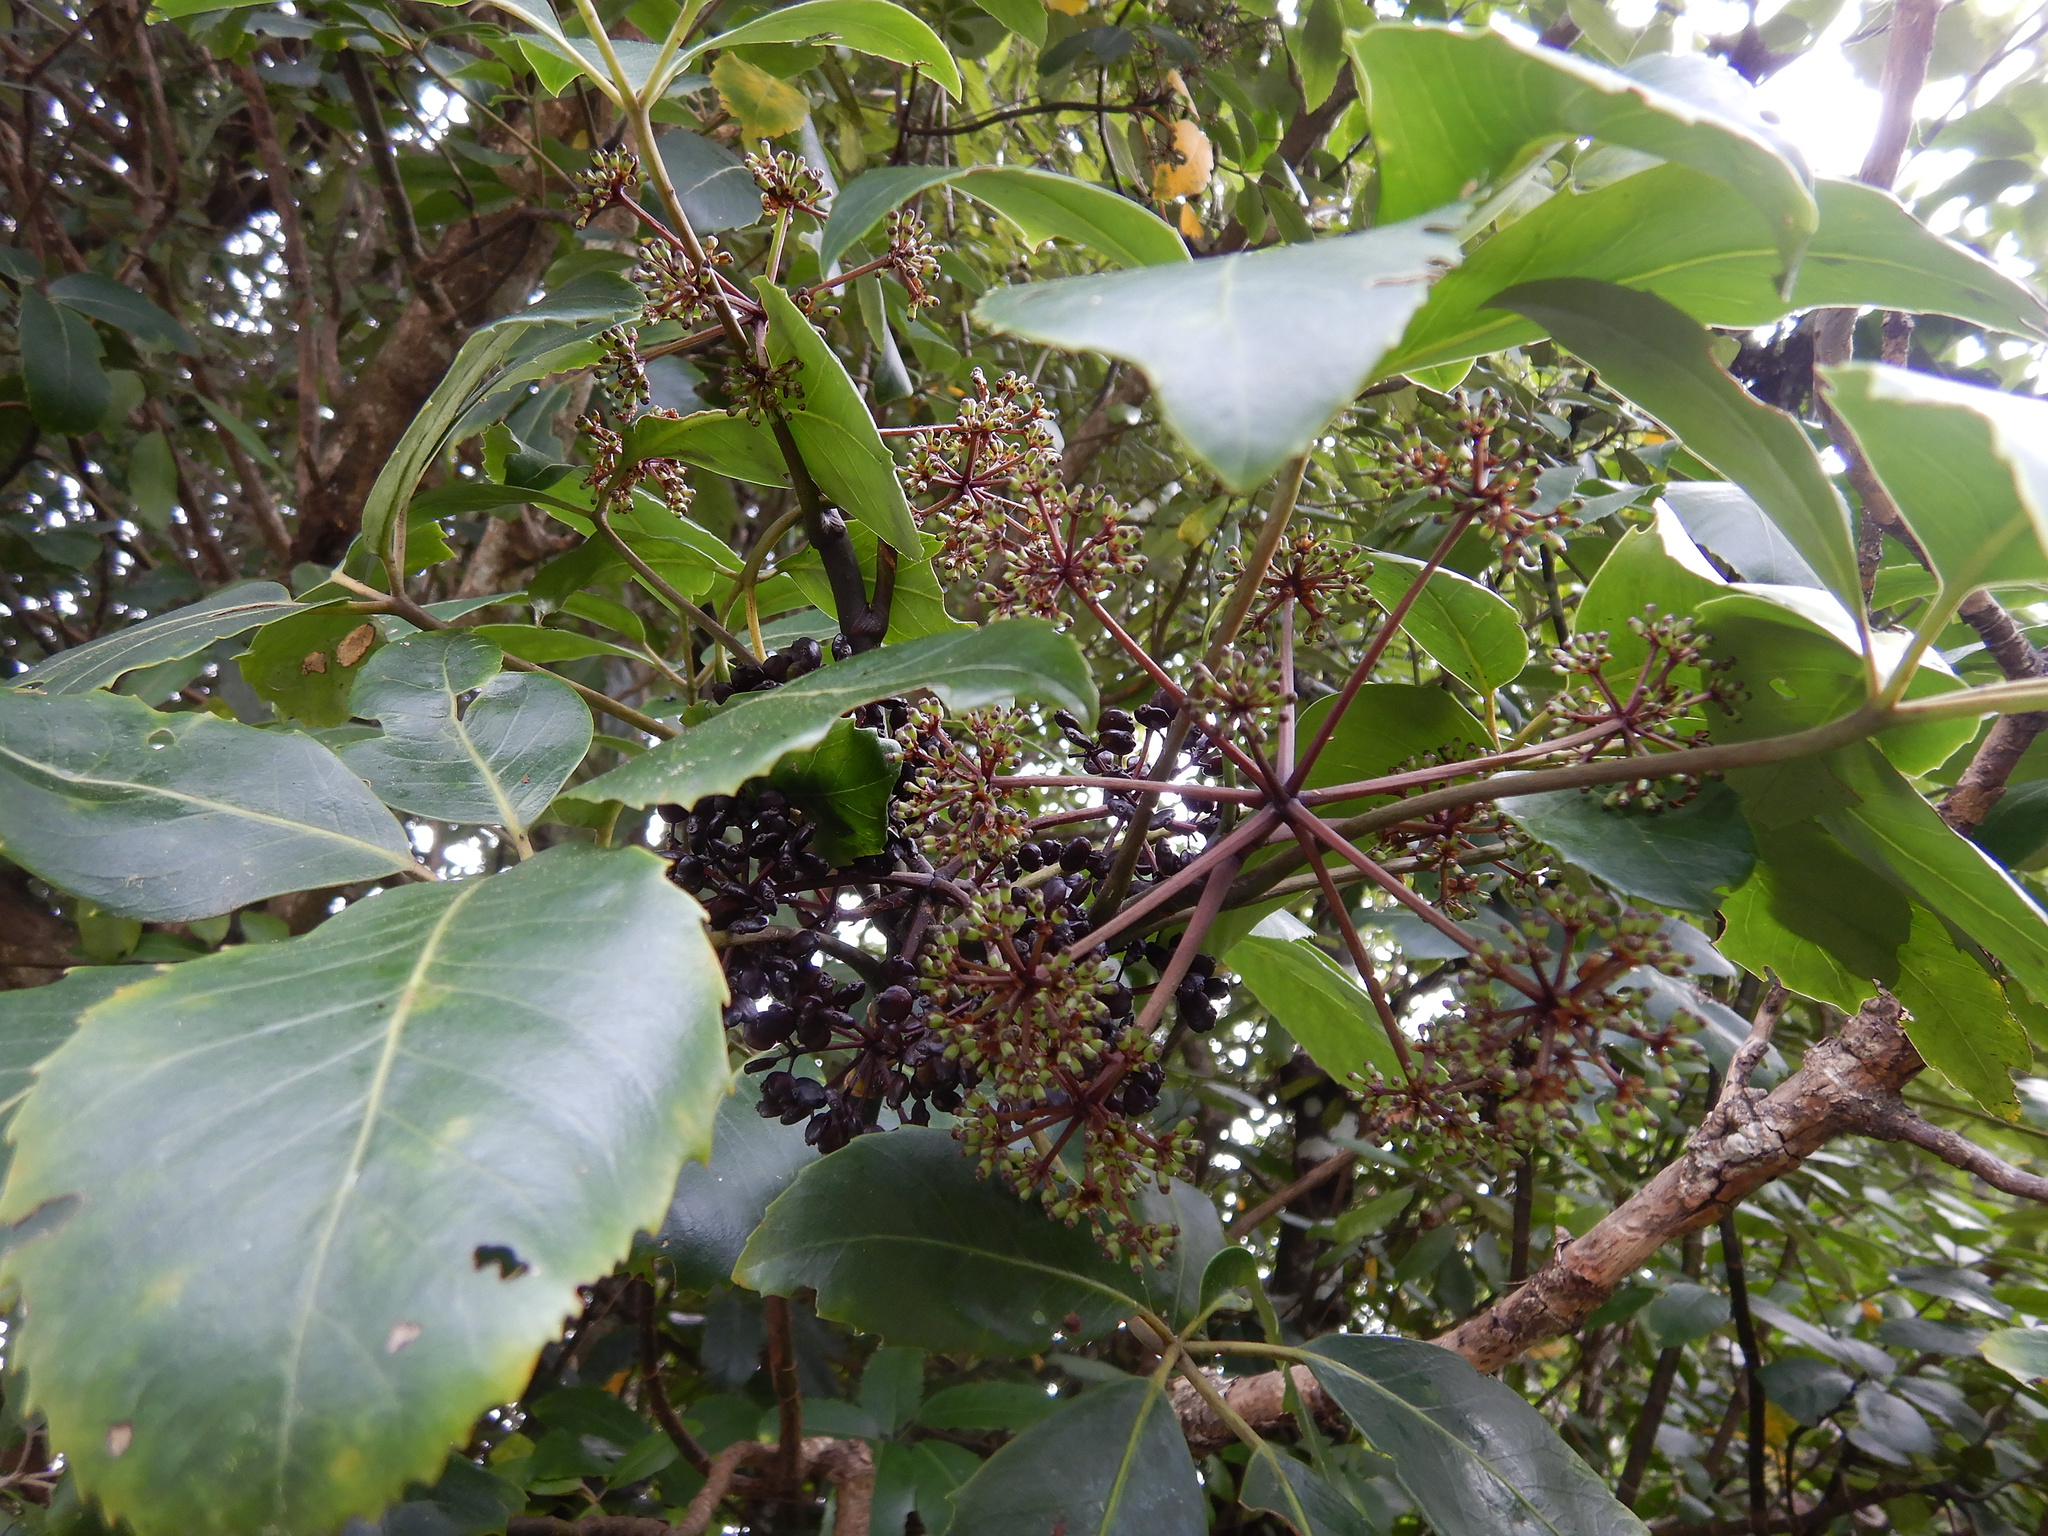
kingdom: Plantae
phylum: Tracheophyta
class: Magnoliopsida
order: Apiales
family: Araliaceae
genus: Neopanax
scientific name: Neopanax arboreus
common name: Five-fingers
